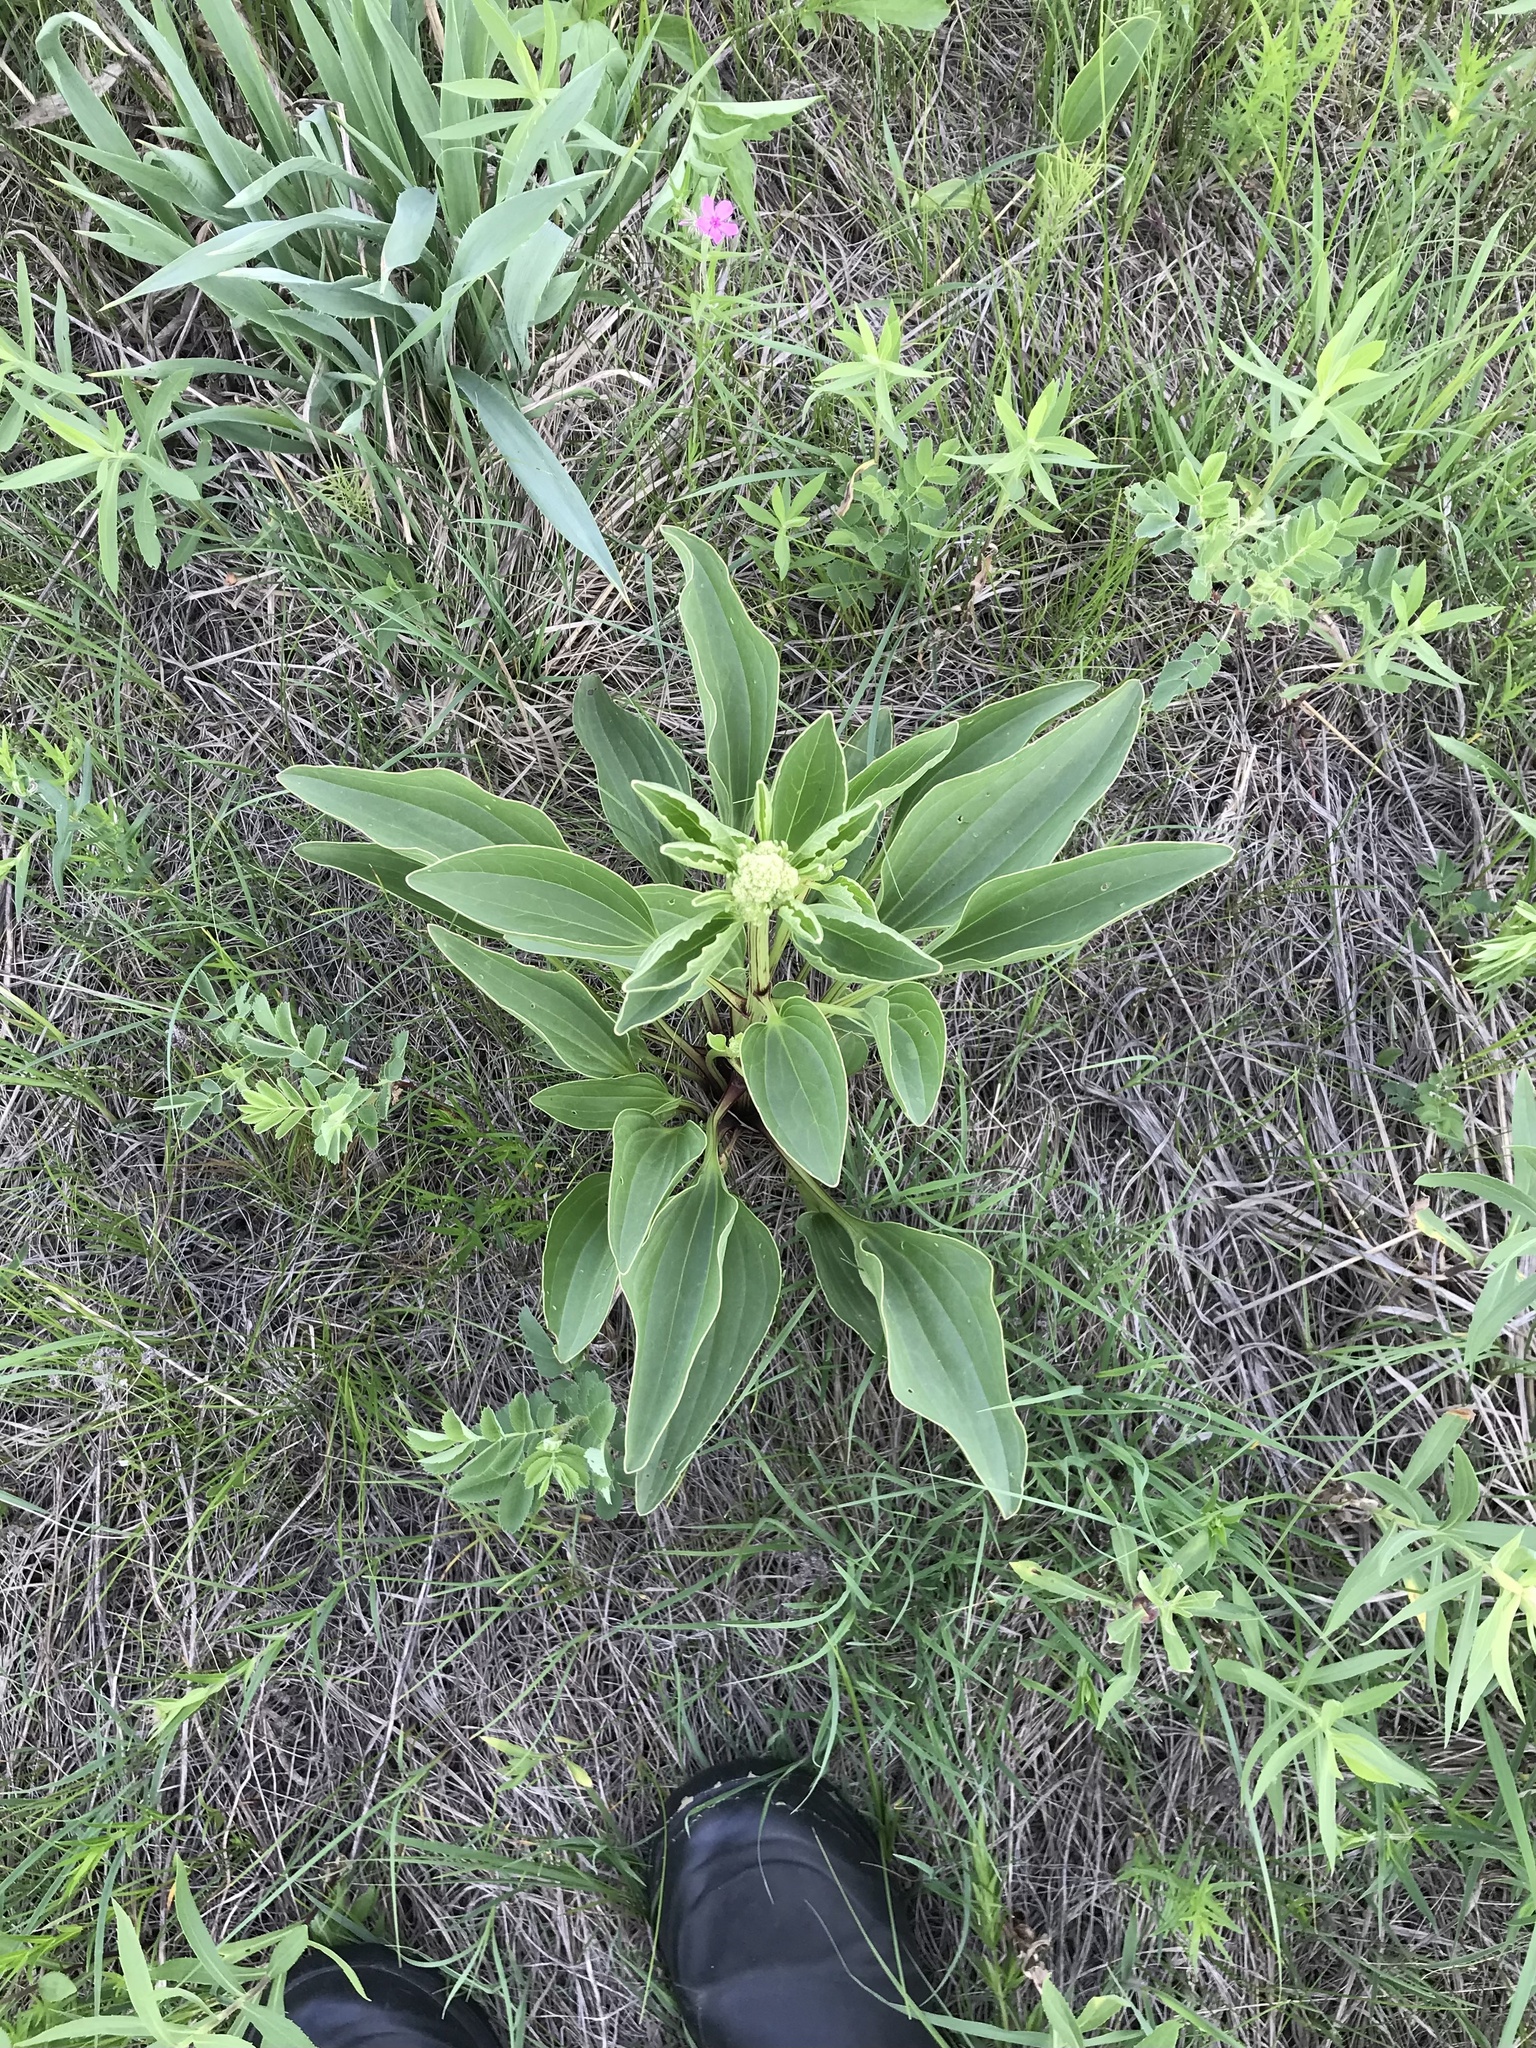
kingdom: Plantae
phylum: Tracheophyta
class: Magnoliopsida
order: Asterales
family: Asteraceae
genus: Arnoglossum
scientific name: Arnoglossum plantagineum
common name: Groove-stemmed indian-plantain
